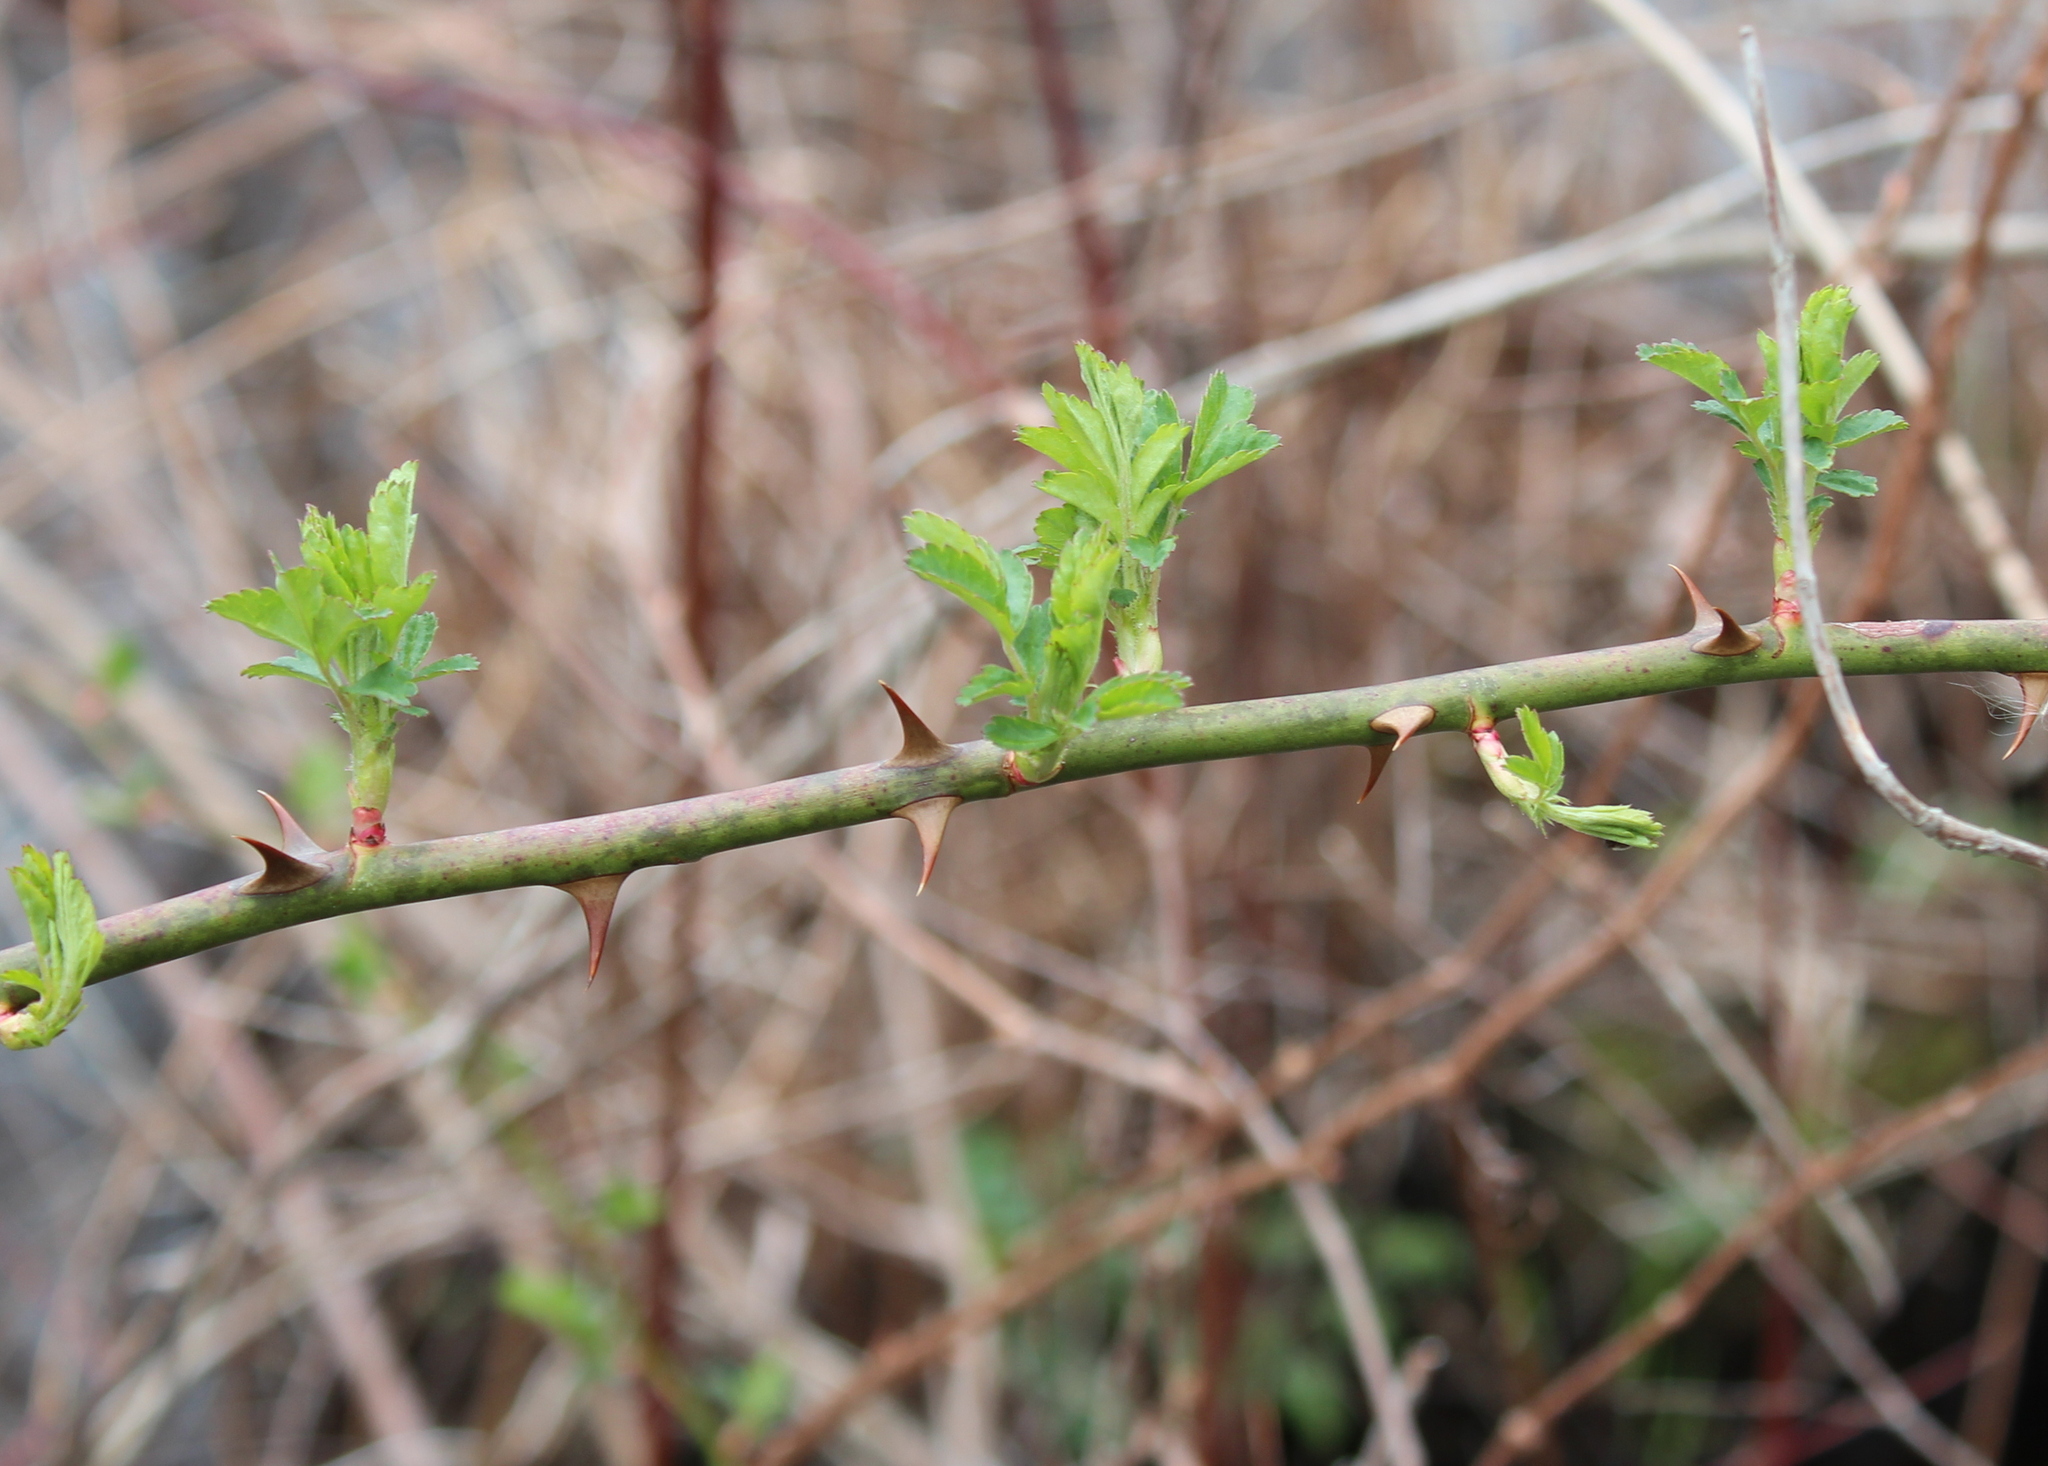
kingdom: Plantae
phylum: Tracheophyta
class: Magnoliopsida
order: Rosales
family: Rosaceae
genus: Rosa
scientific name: Rosa multiflora
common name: Multiflora rose
